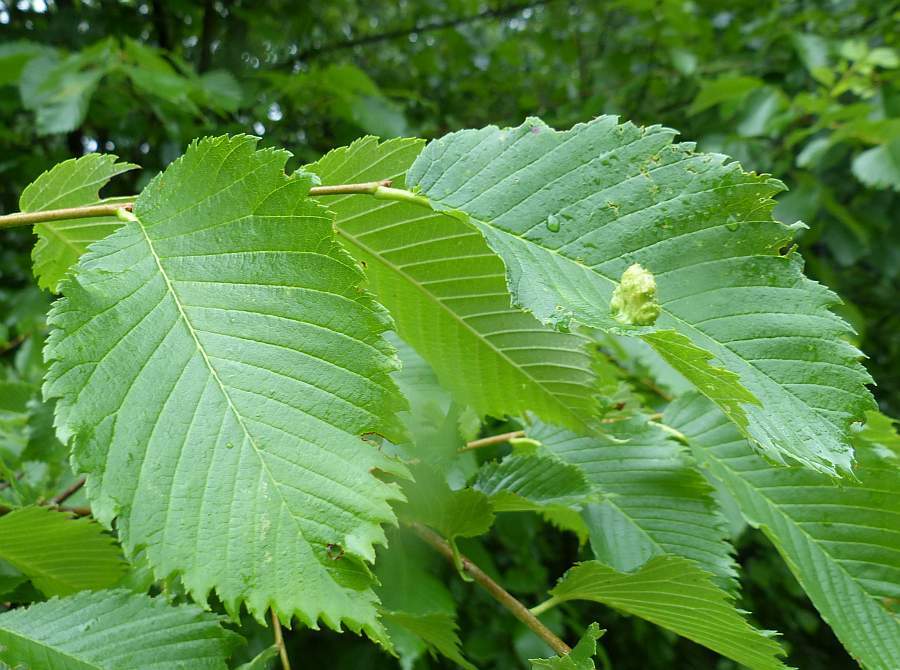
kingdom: Plantae
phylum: Tracheophyta
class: Magnoliopsida
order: Rosales
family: Ulmaceae
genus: Ulmus
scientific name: Ulmus americana
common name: American elm
